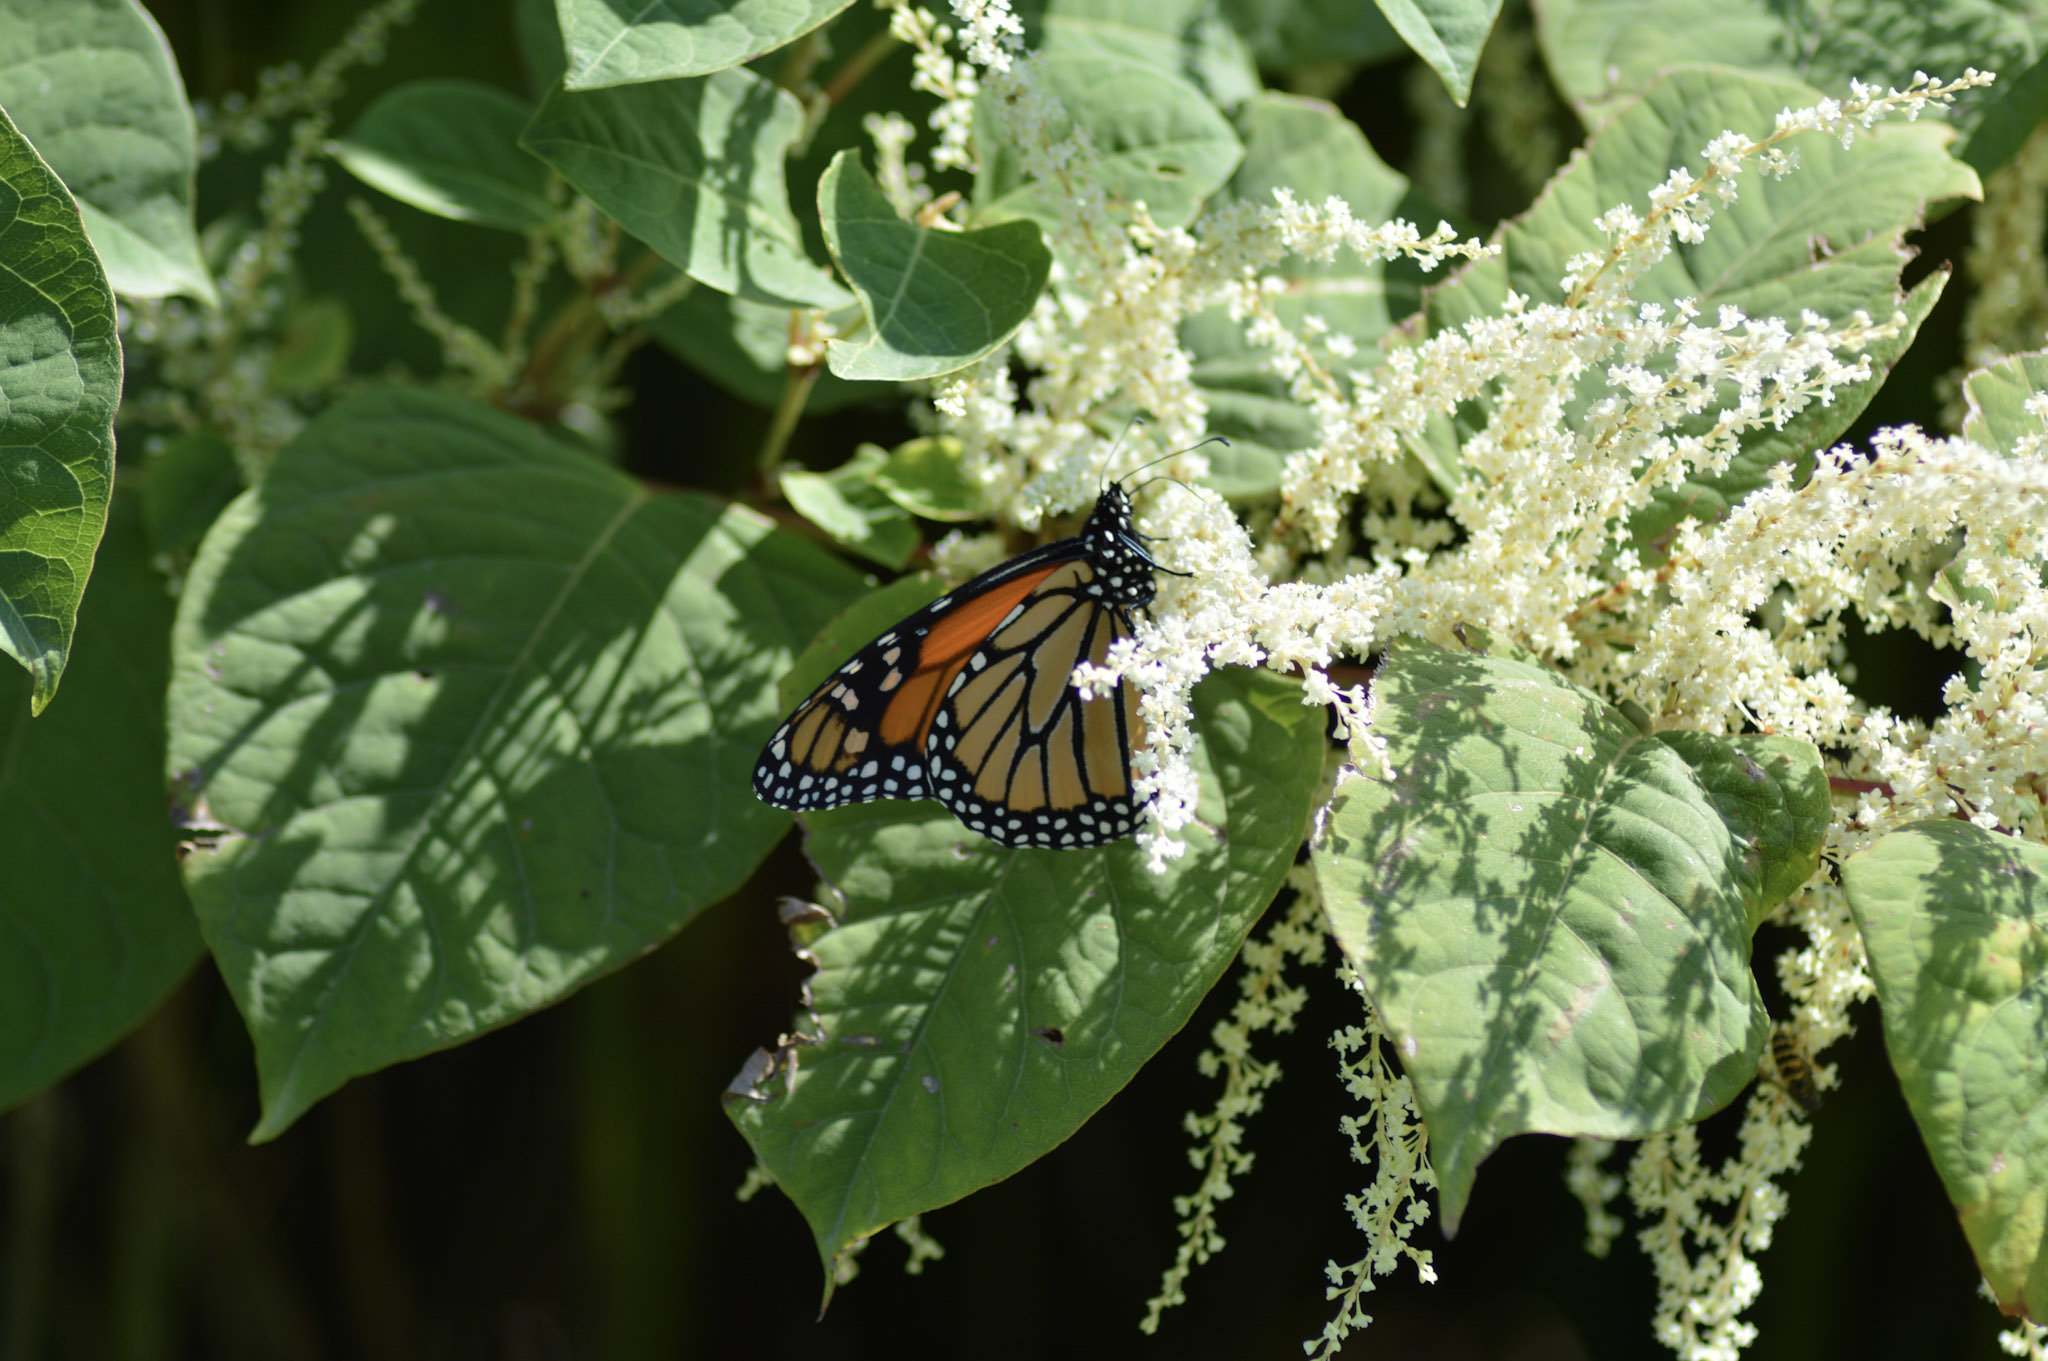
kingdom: Animalia
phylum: Arthropoda
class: Insecta
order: Lepidoptera
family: Nymphalidae
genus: Danaus
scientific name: Danaus plexippus
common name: Monarch
